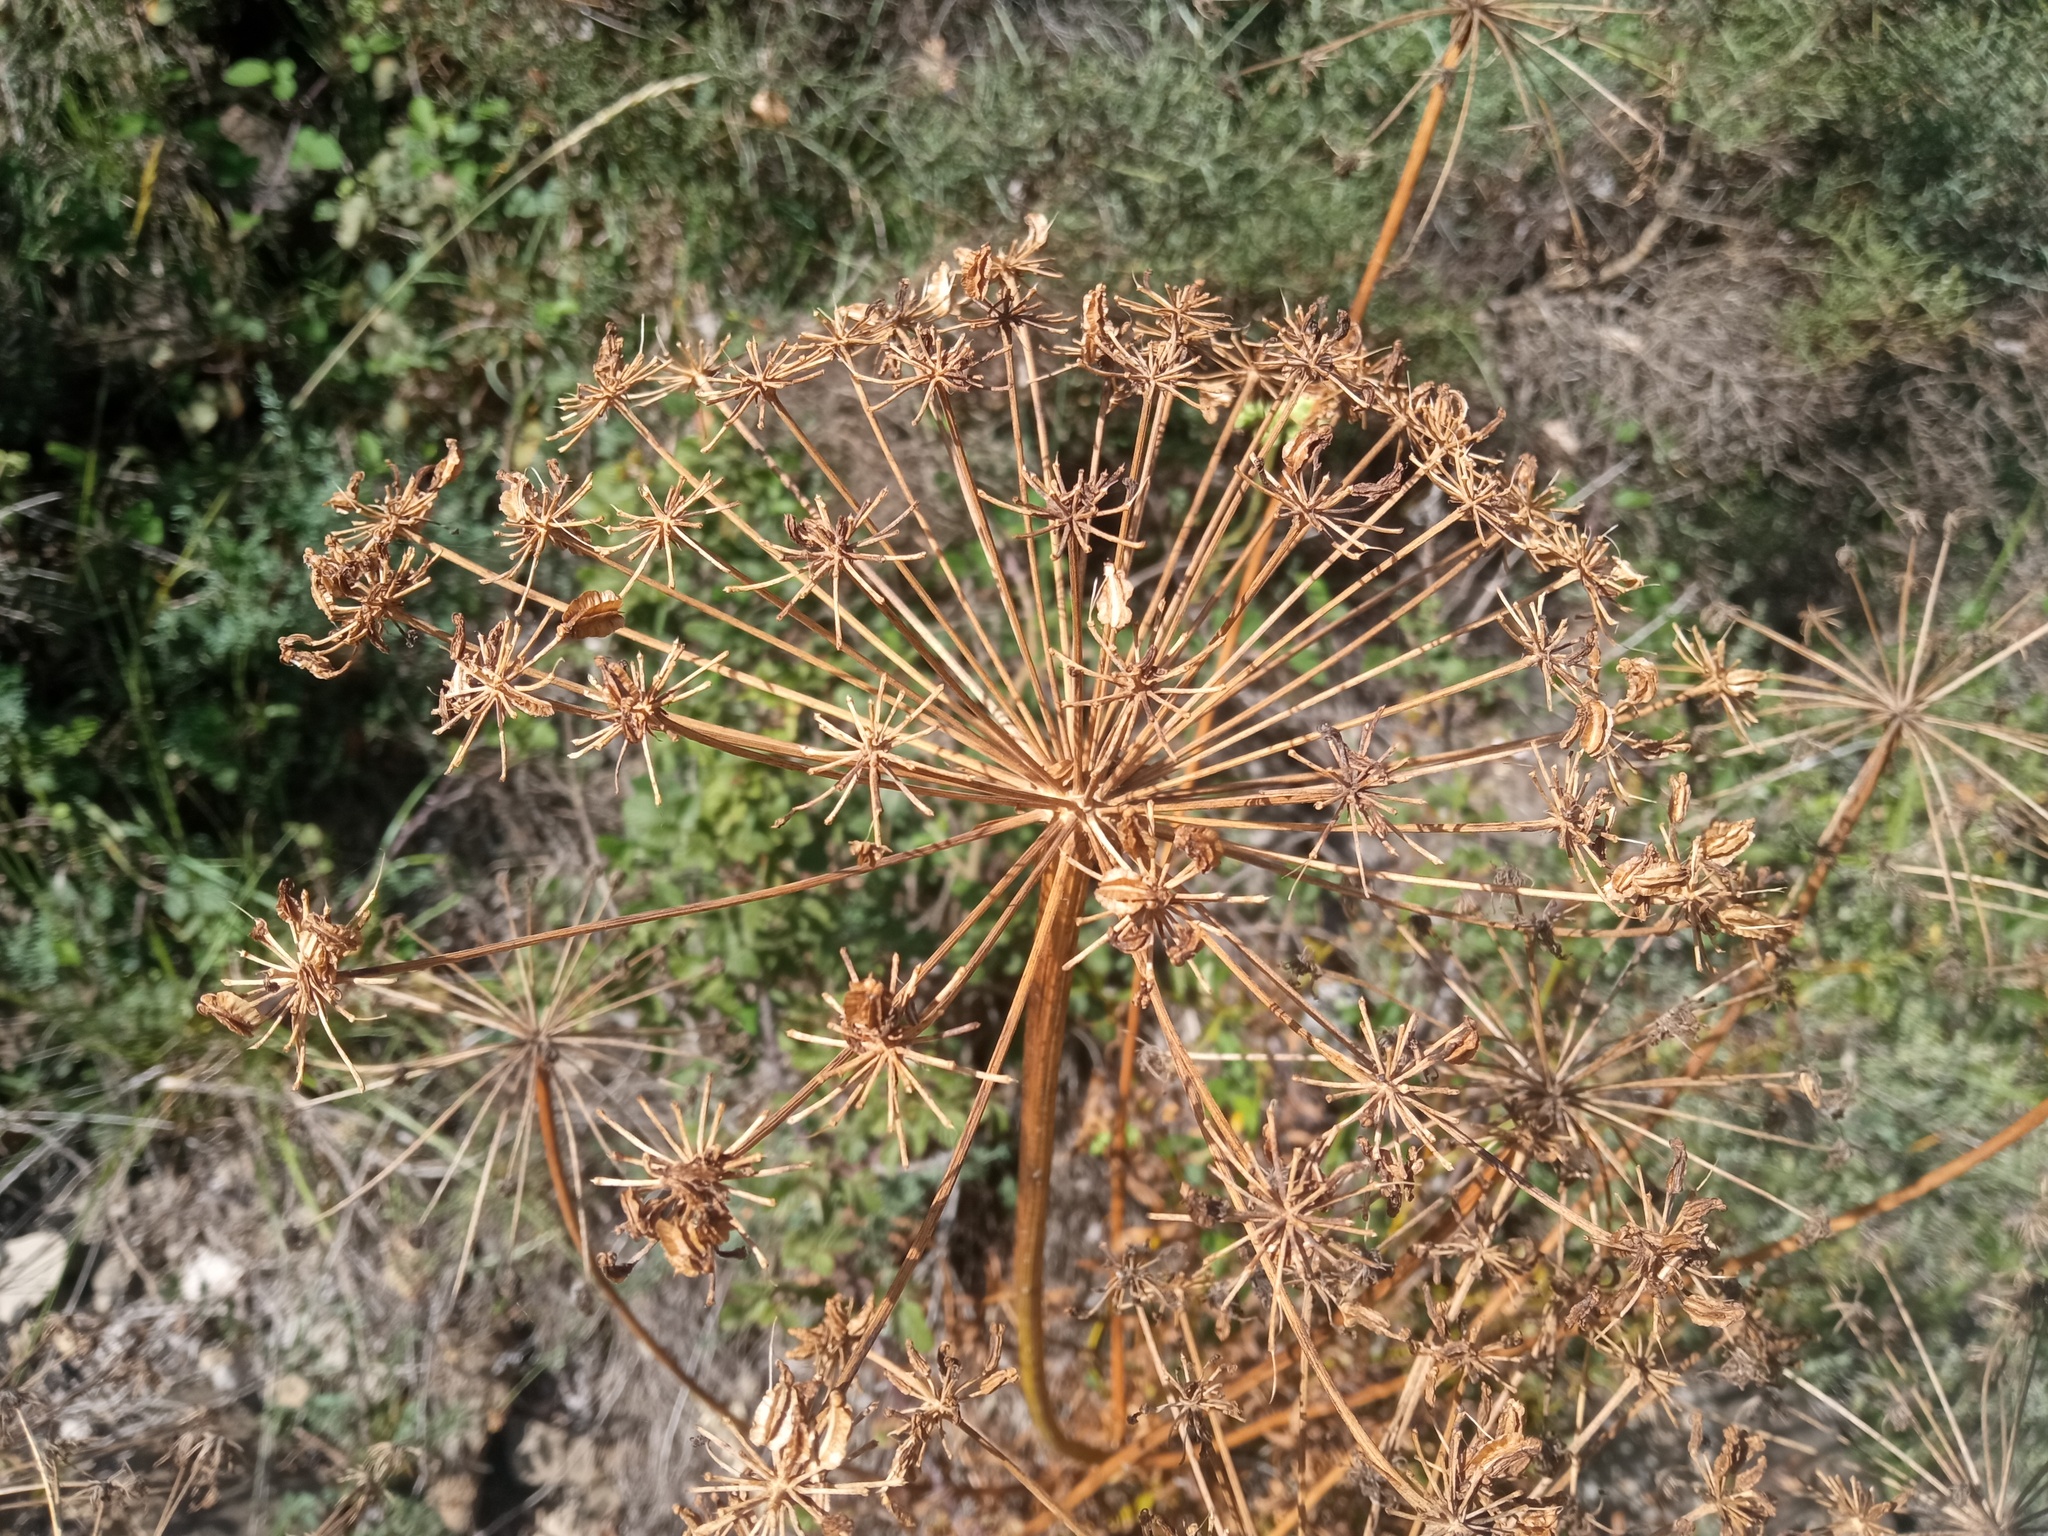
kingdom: Plantae
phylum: Tracheophyta
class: Magnoliopsida
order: Apiales
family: Apiaceae
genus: Laserpitium
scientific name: Laserpitium gallicum
